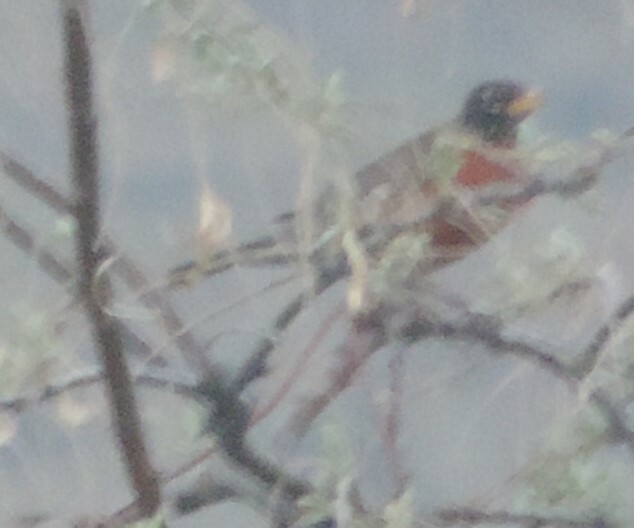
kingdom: Animalia
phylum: Chordata
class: Aves
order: Passeriformes
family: Turdidae
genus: Turdus
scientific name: Turdus migratorius
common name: American robin
